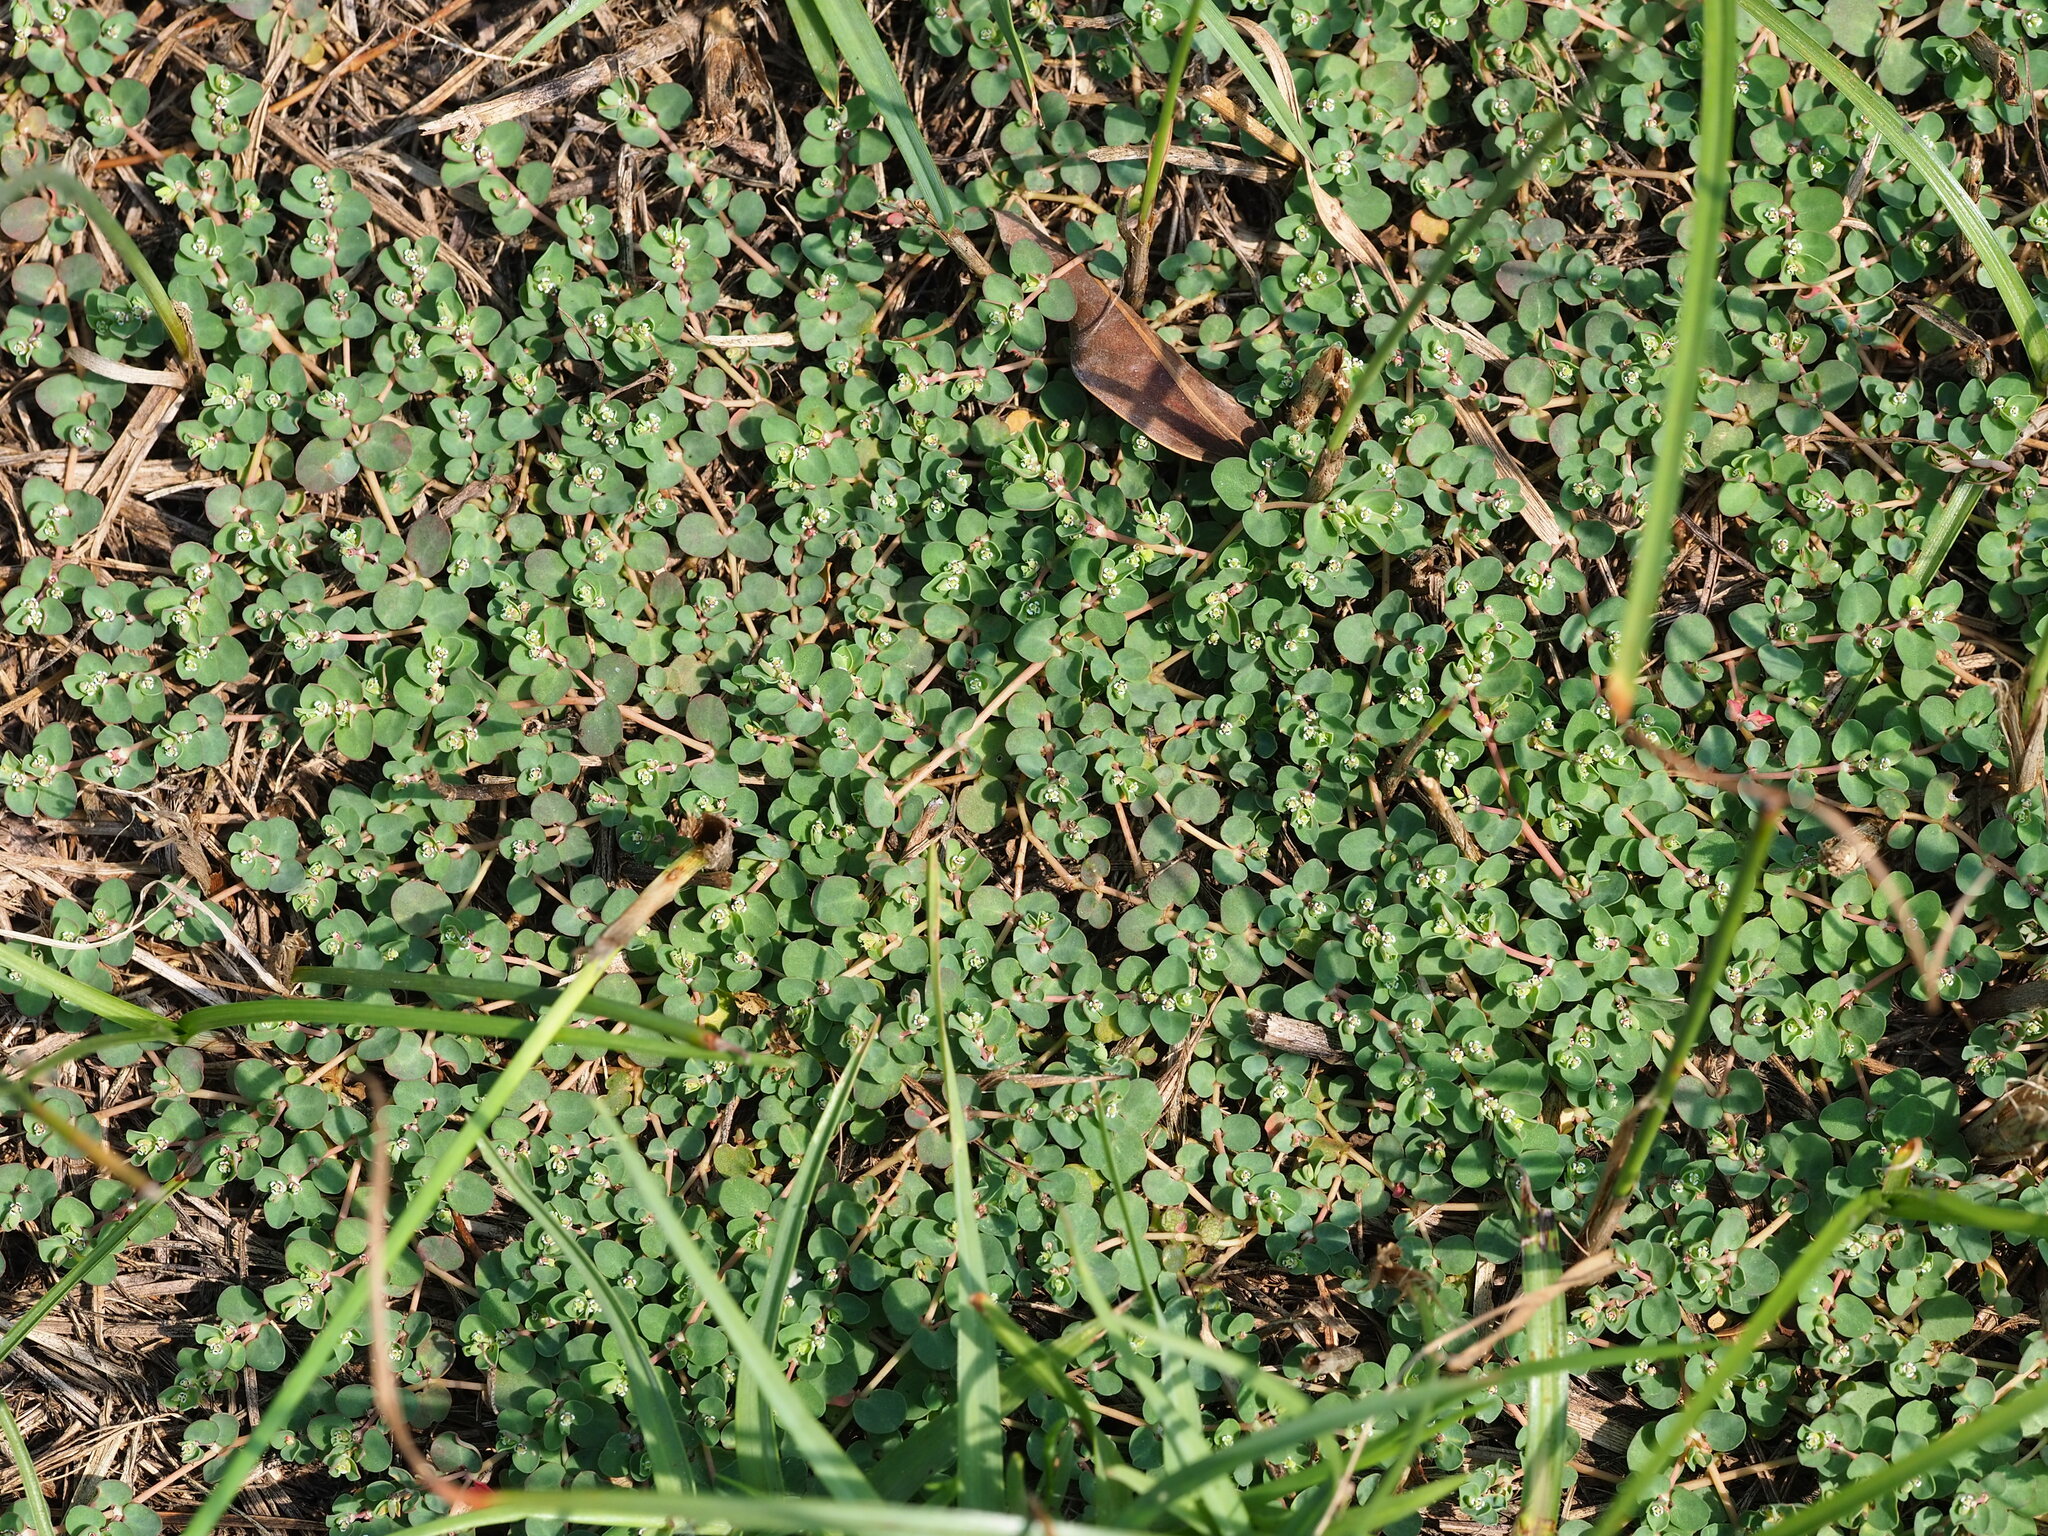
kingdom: Plantae
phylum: Tracheophyta
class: Magnoliopsida
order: Malpighiales
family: Euphorbiaceae
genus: Euphorbia
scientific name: Euphorbia serpens
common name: Matted sandmat
